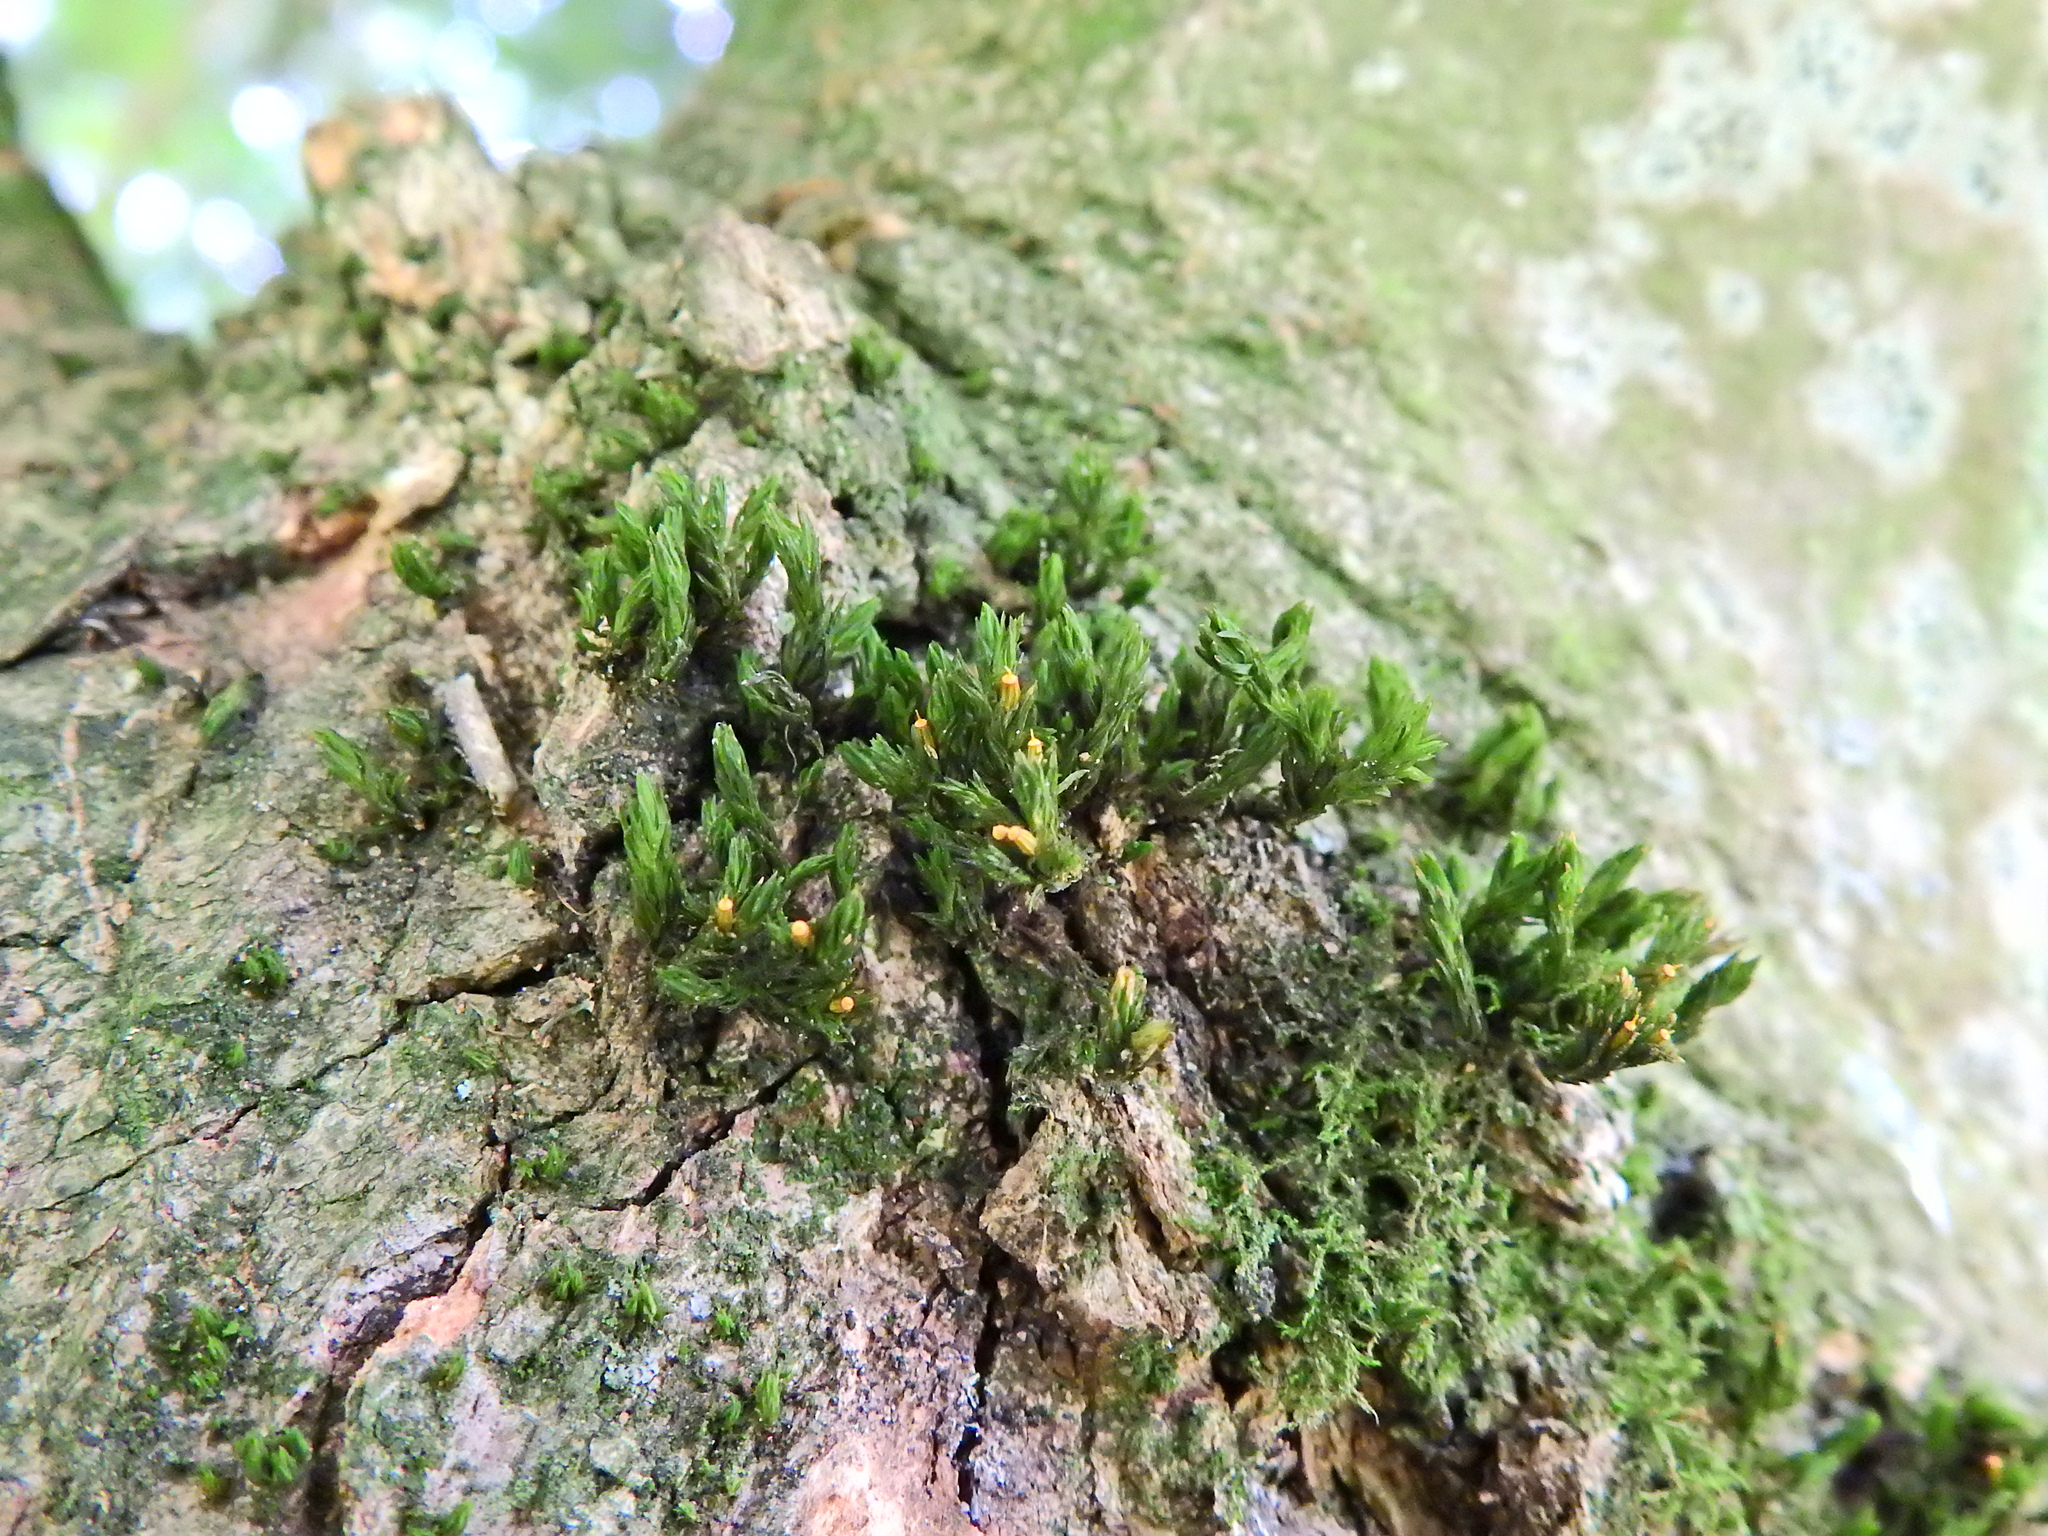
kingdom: Plantae
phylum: Bryophyta
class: Bryopsida
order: Orthotrichales
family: Orthotrichaceae
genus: Lewinskya
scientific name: Lewinskya affinis
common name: Wood bristle-moss
